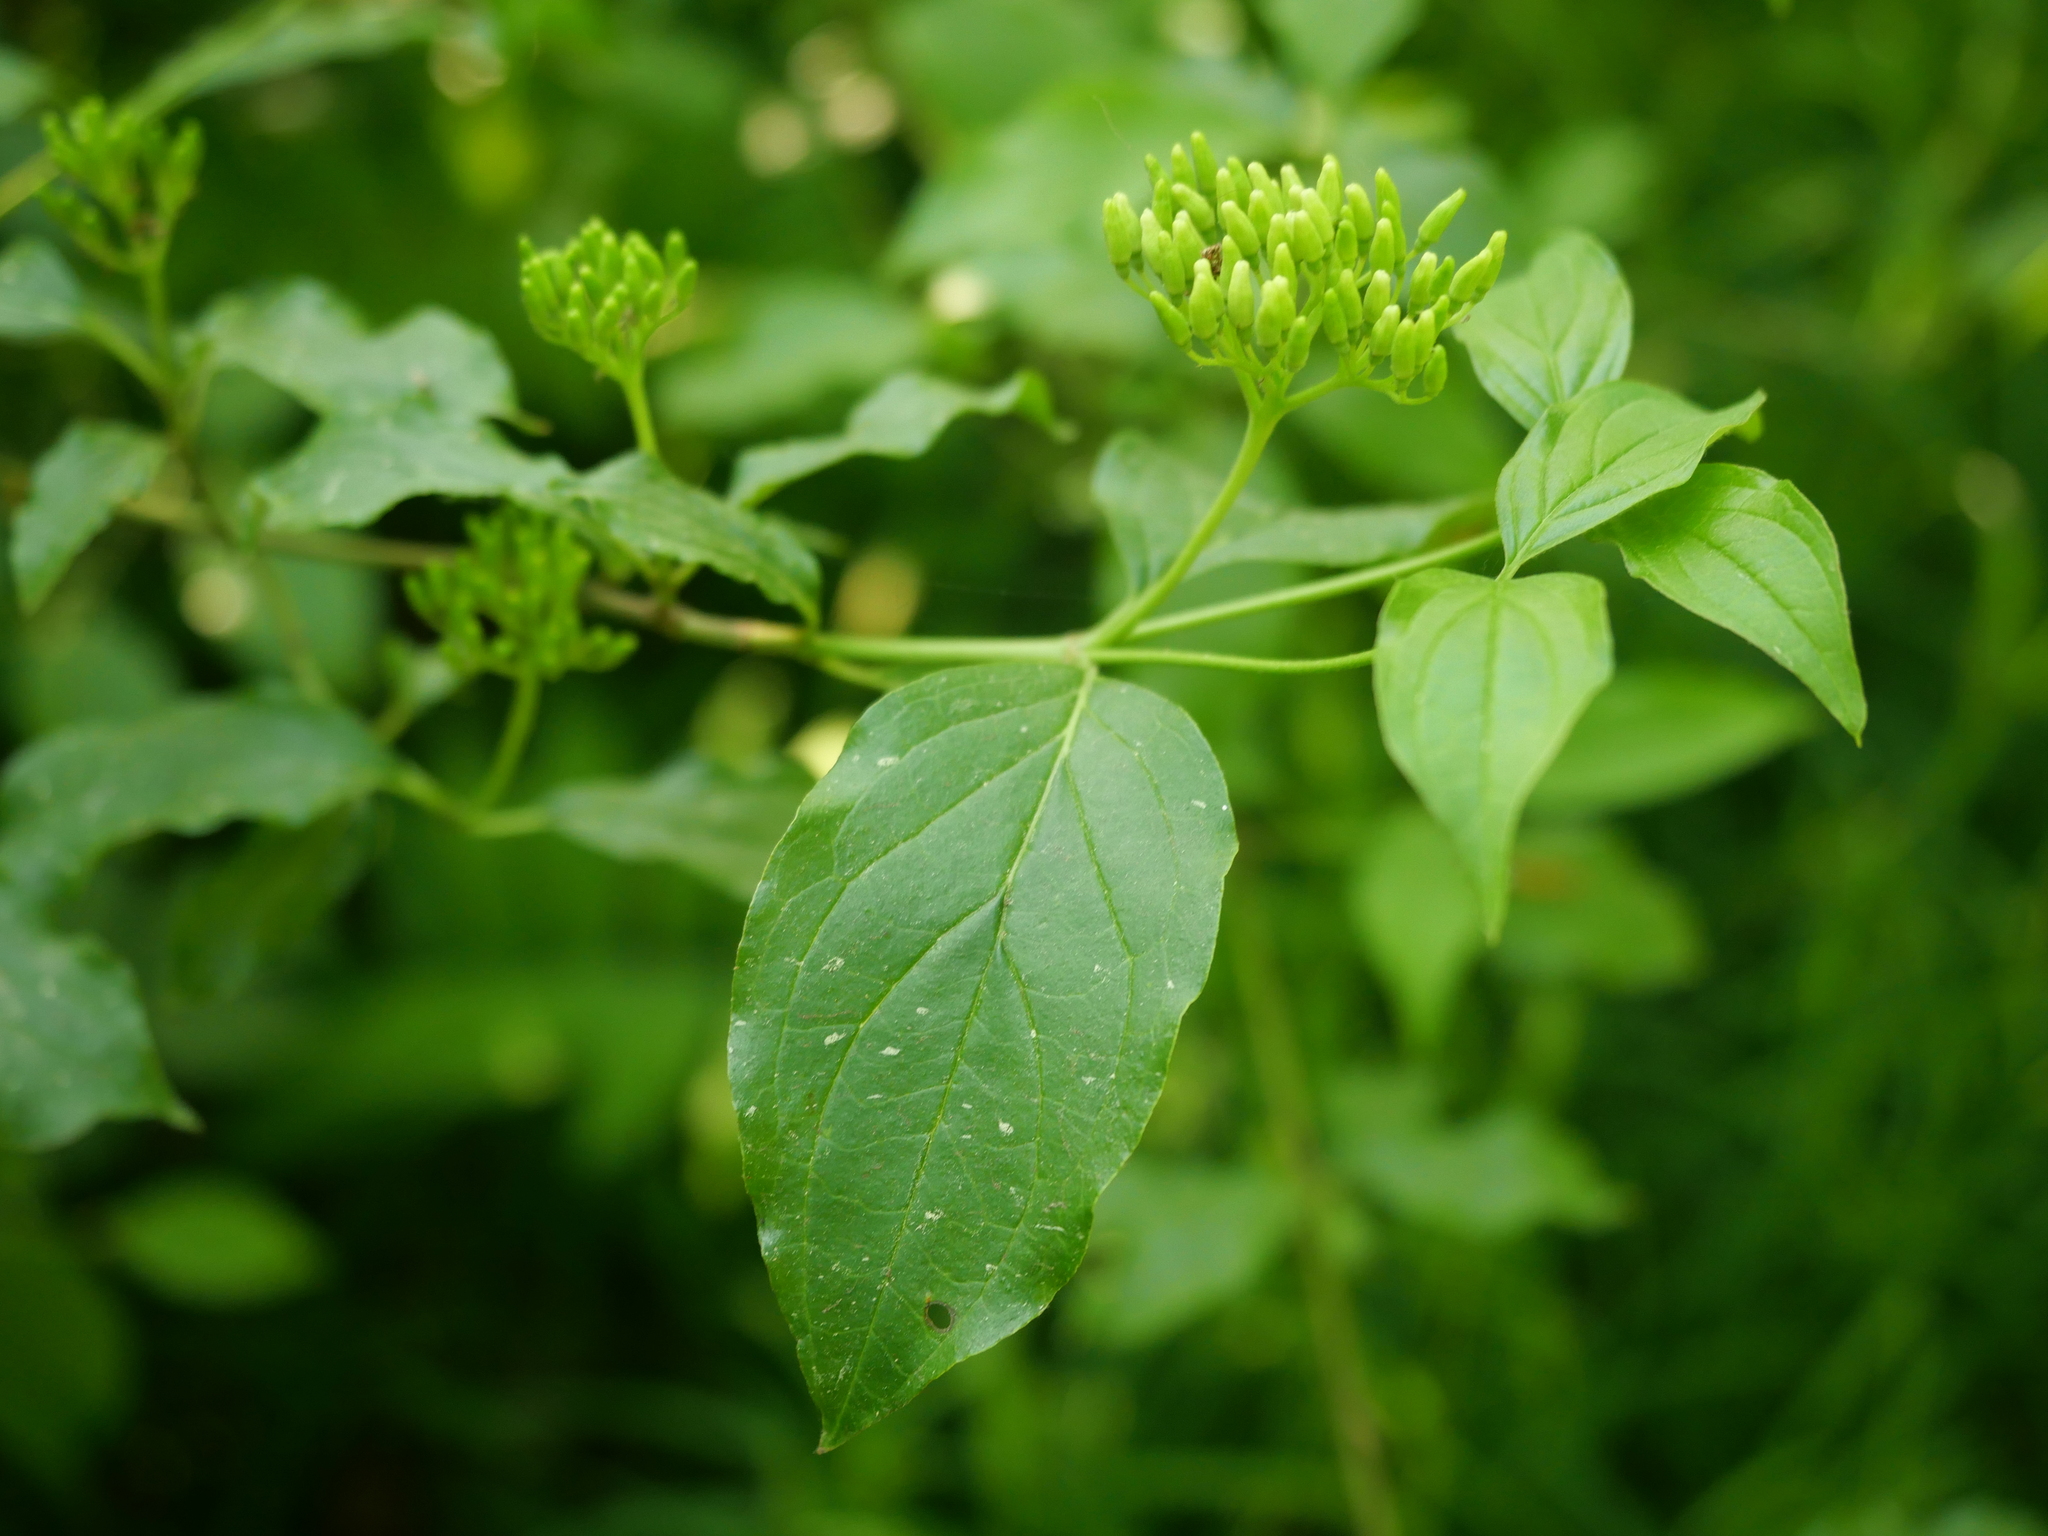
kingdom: Plantae
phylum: Tracheophyta
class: Magnoliopsida
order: Cornales
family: Cornaceae
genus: Cornus
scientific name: Cornus sanguinea
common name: Dogwood
